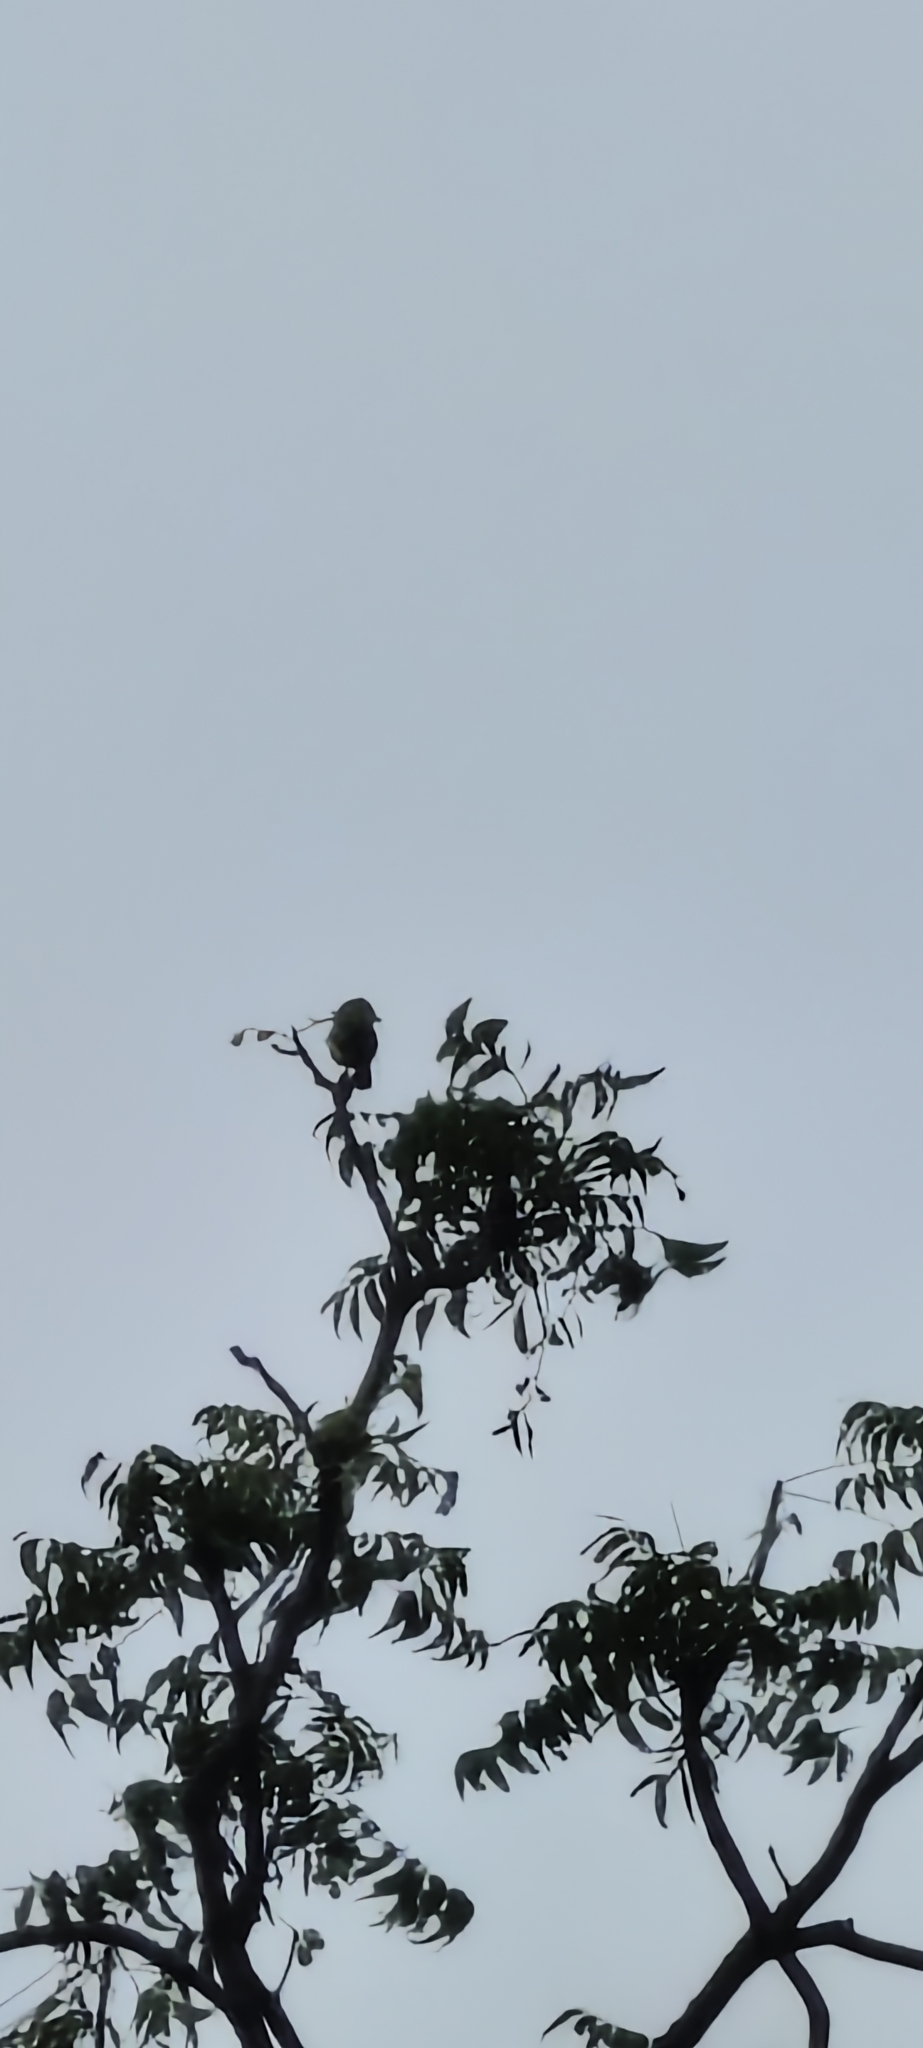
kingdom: Animalia
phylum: Chordata
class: Aves
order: Passeriformes
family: Aegithinidae
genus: Aegithina
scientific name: Aegithina tiphia
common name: Common iora
